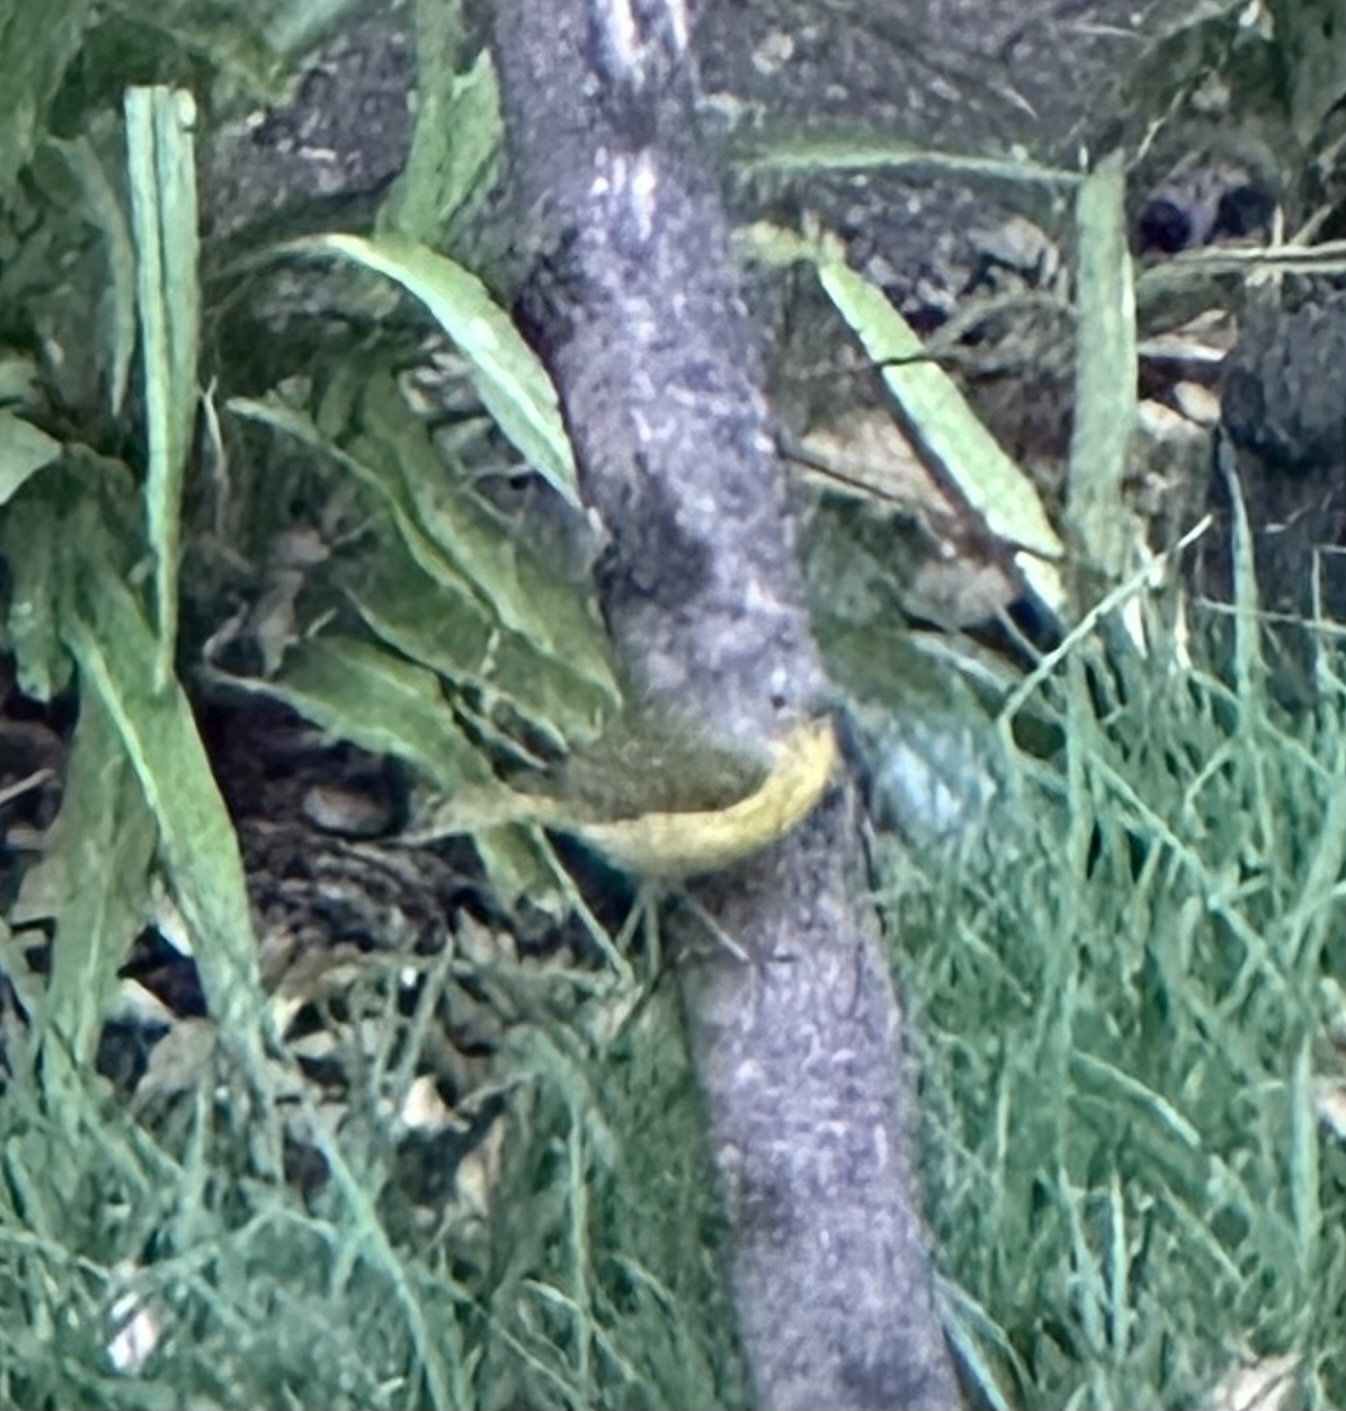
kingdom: Animalia
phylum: Chordata
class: Aves
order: Passeriformes
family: Parulidae
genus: Leiothlypis
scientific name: Leiothlypis ruficapilla
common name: Nashville warbler
